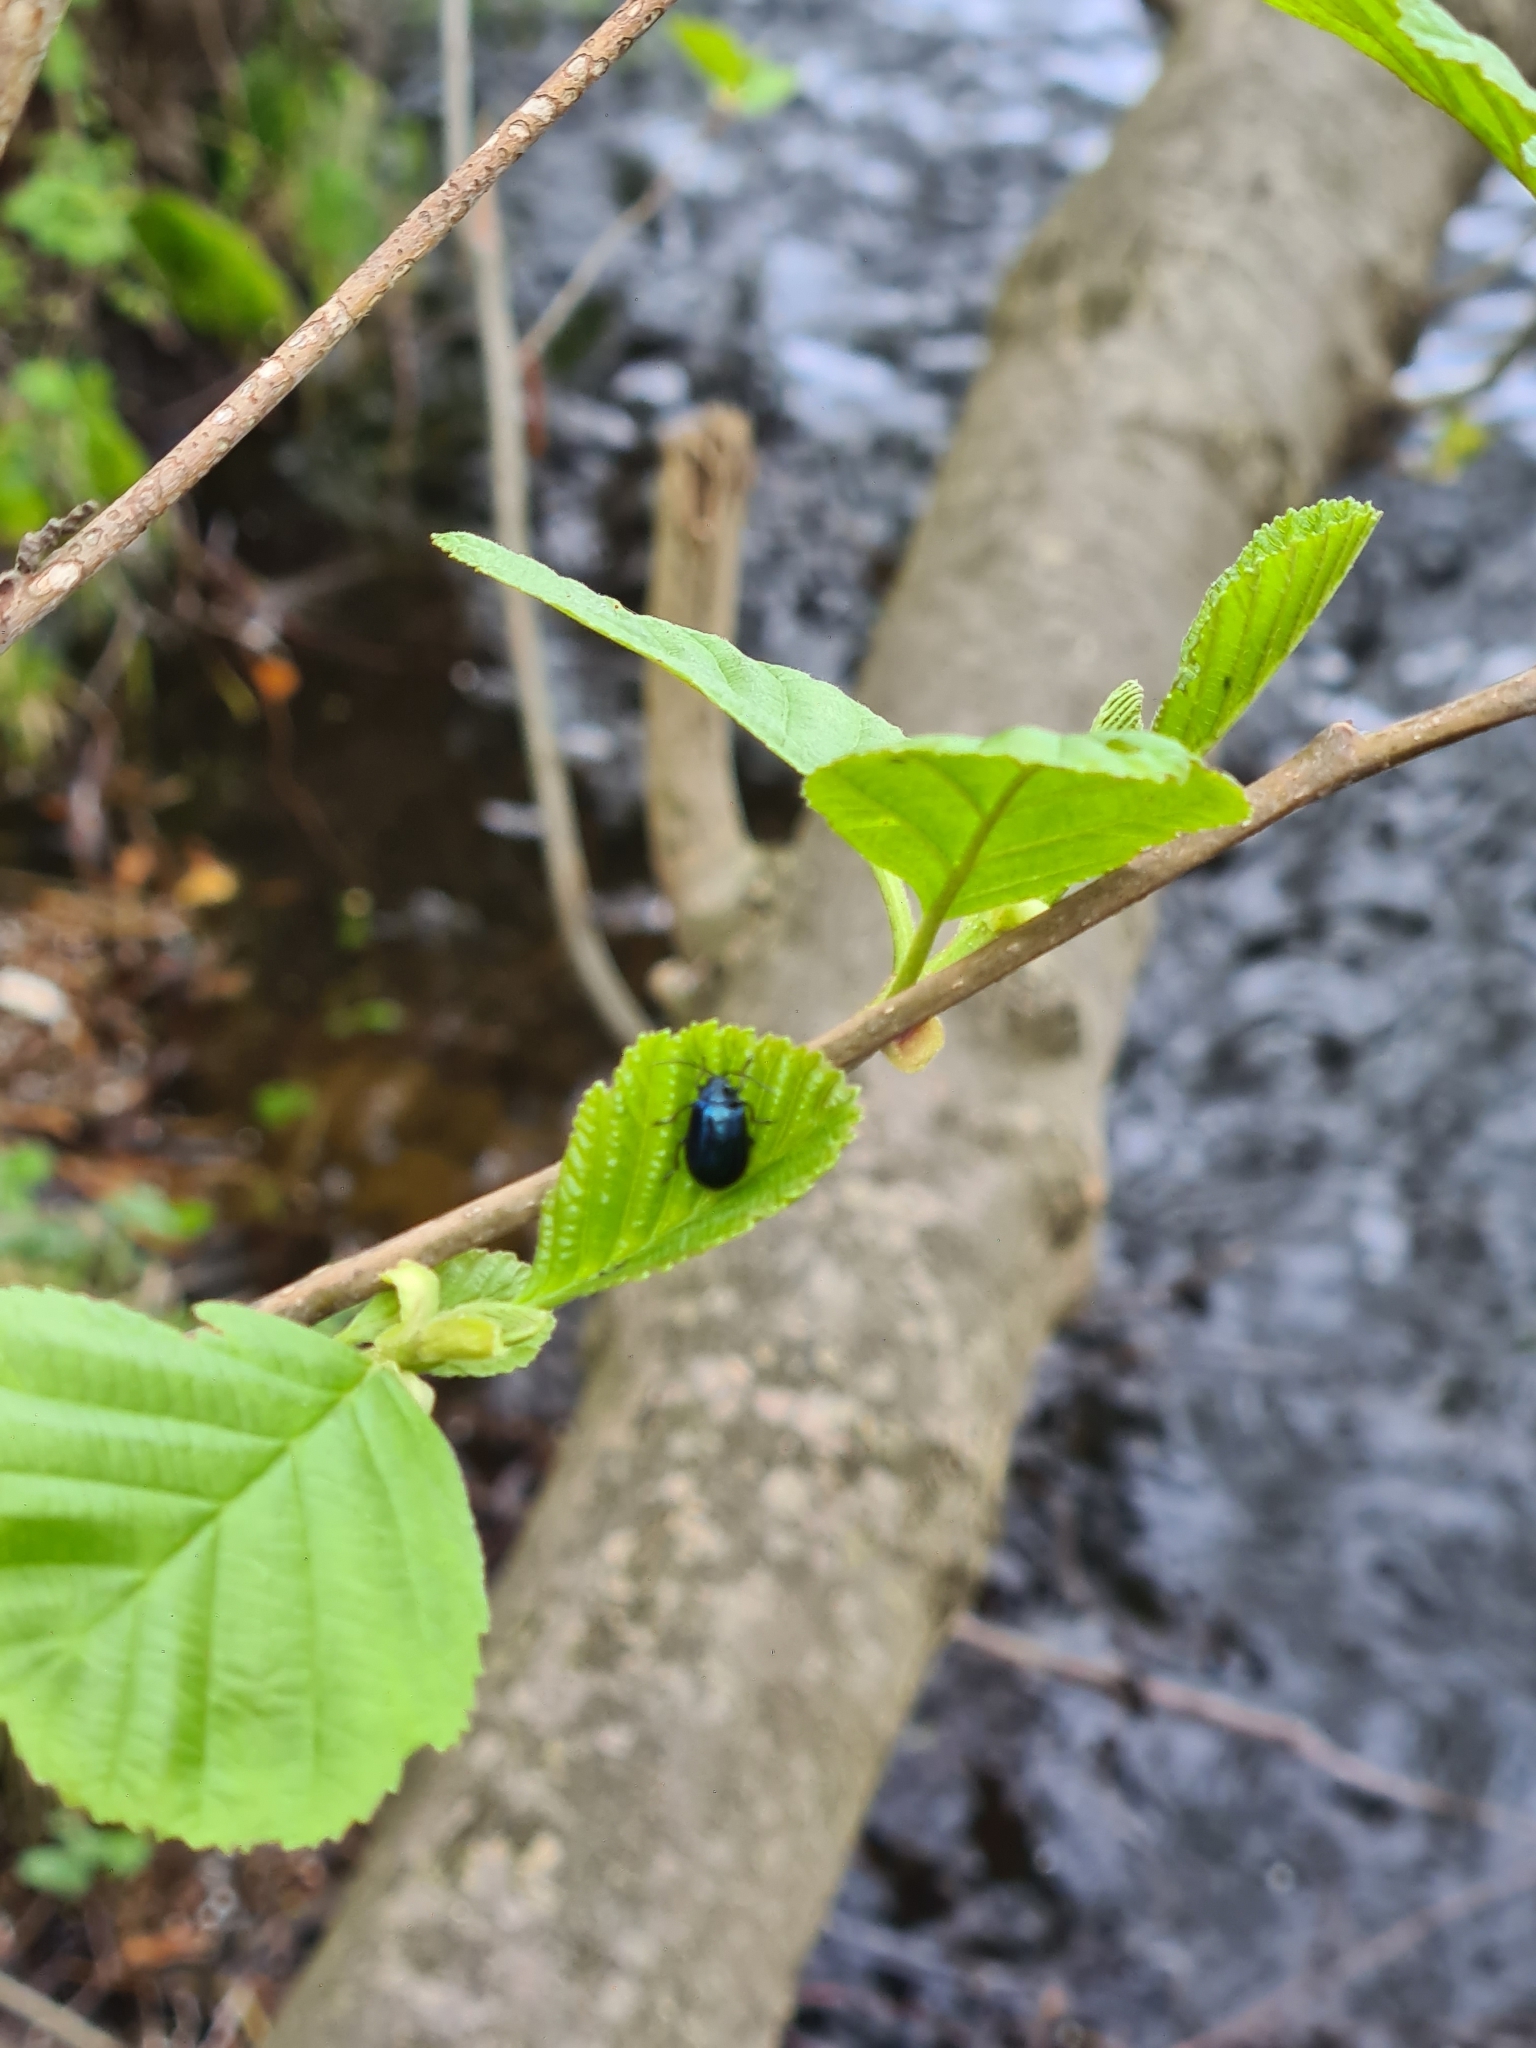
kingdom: Animalia
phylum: Arthropoda
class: Insecta
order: Coleoptera
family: Chrysomelidae
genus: Agelastica
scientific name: Agelastica alni
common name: Alder leaf beetle
